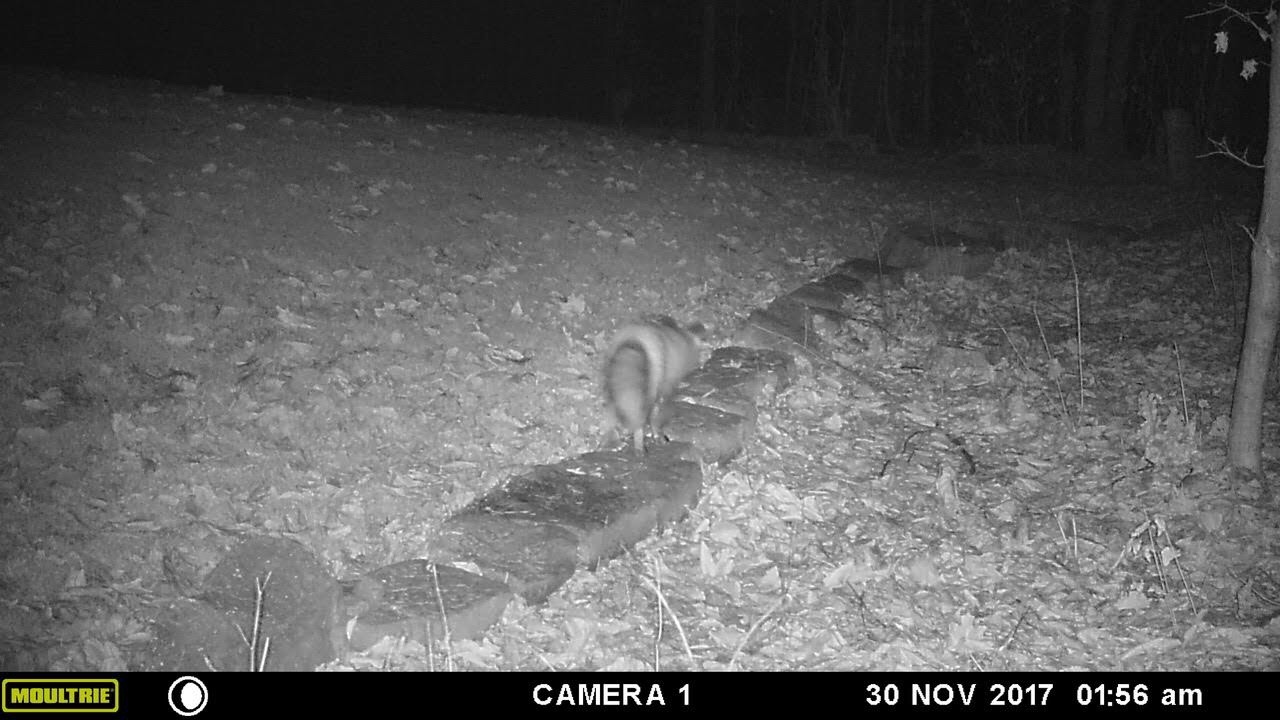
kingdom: Animalia
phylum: Chordata
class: Mammalia
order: Carnivora
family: Canidae
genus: Vulpes
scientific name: Vulpes vulpes
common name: Red fox
